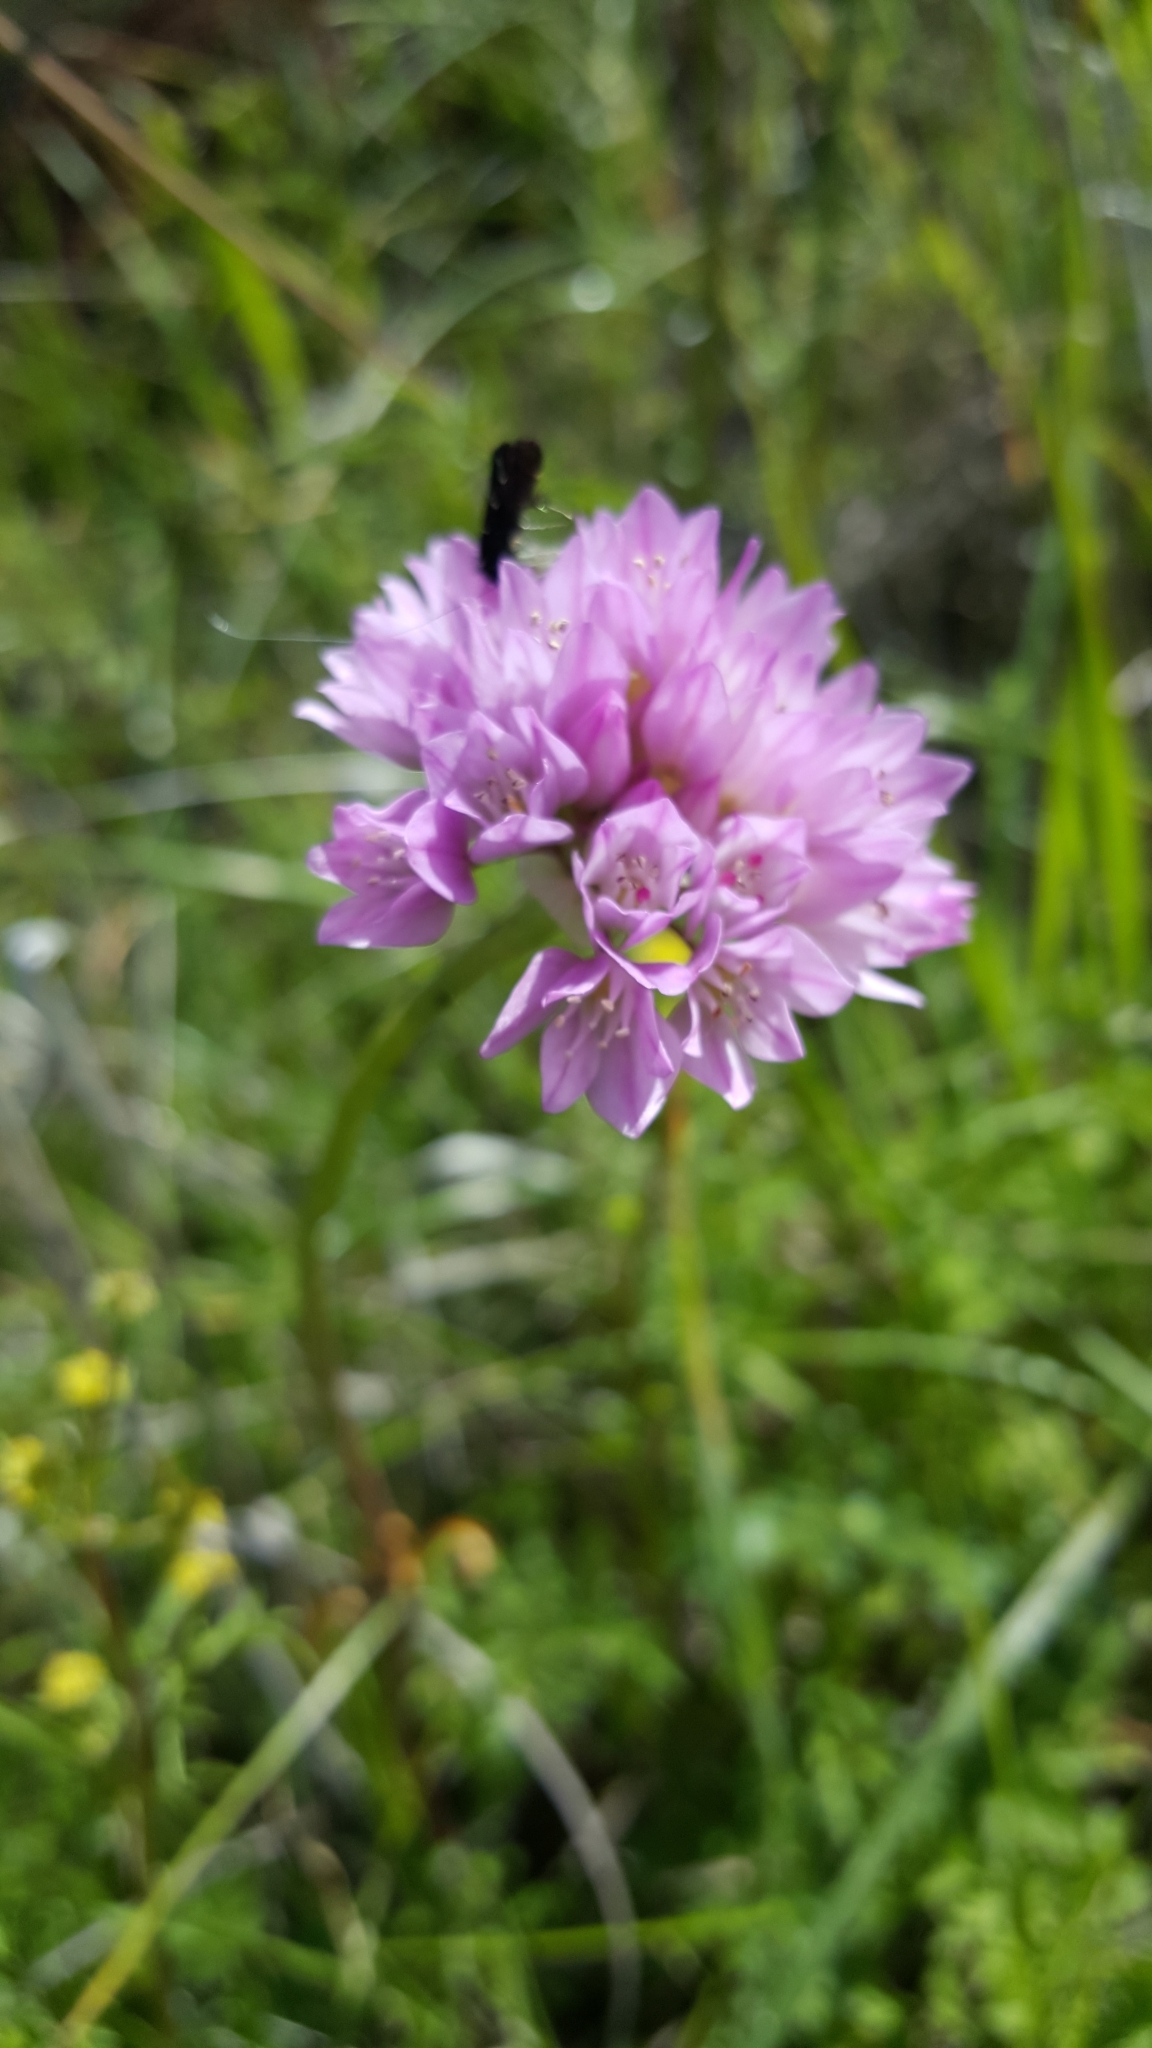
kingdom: Plantae
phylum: Tracheophyta
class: Liliopsida
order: Asparagales
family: Amaryllidaceae
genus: Allium
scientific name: Allium serra
